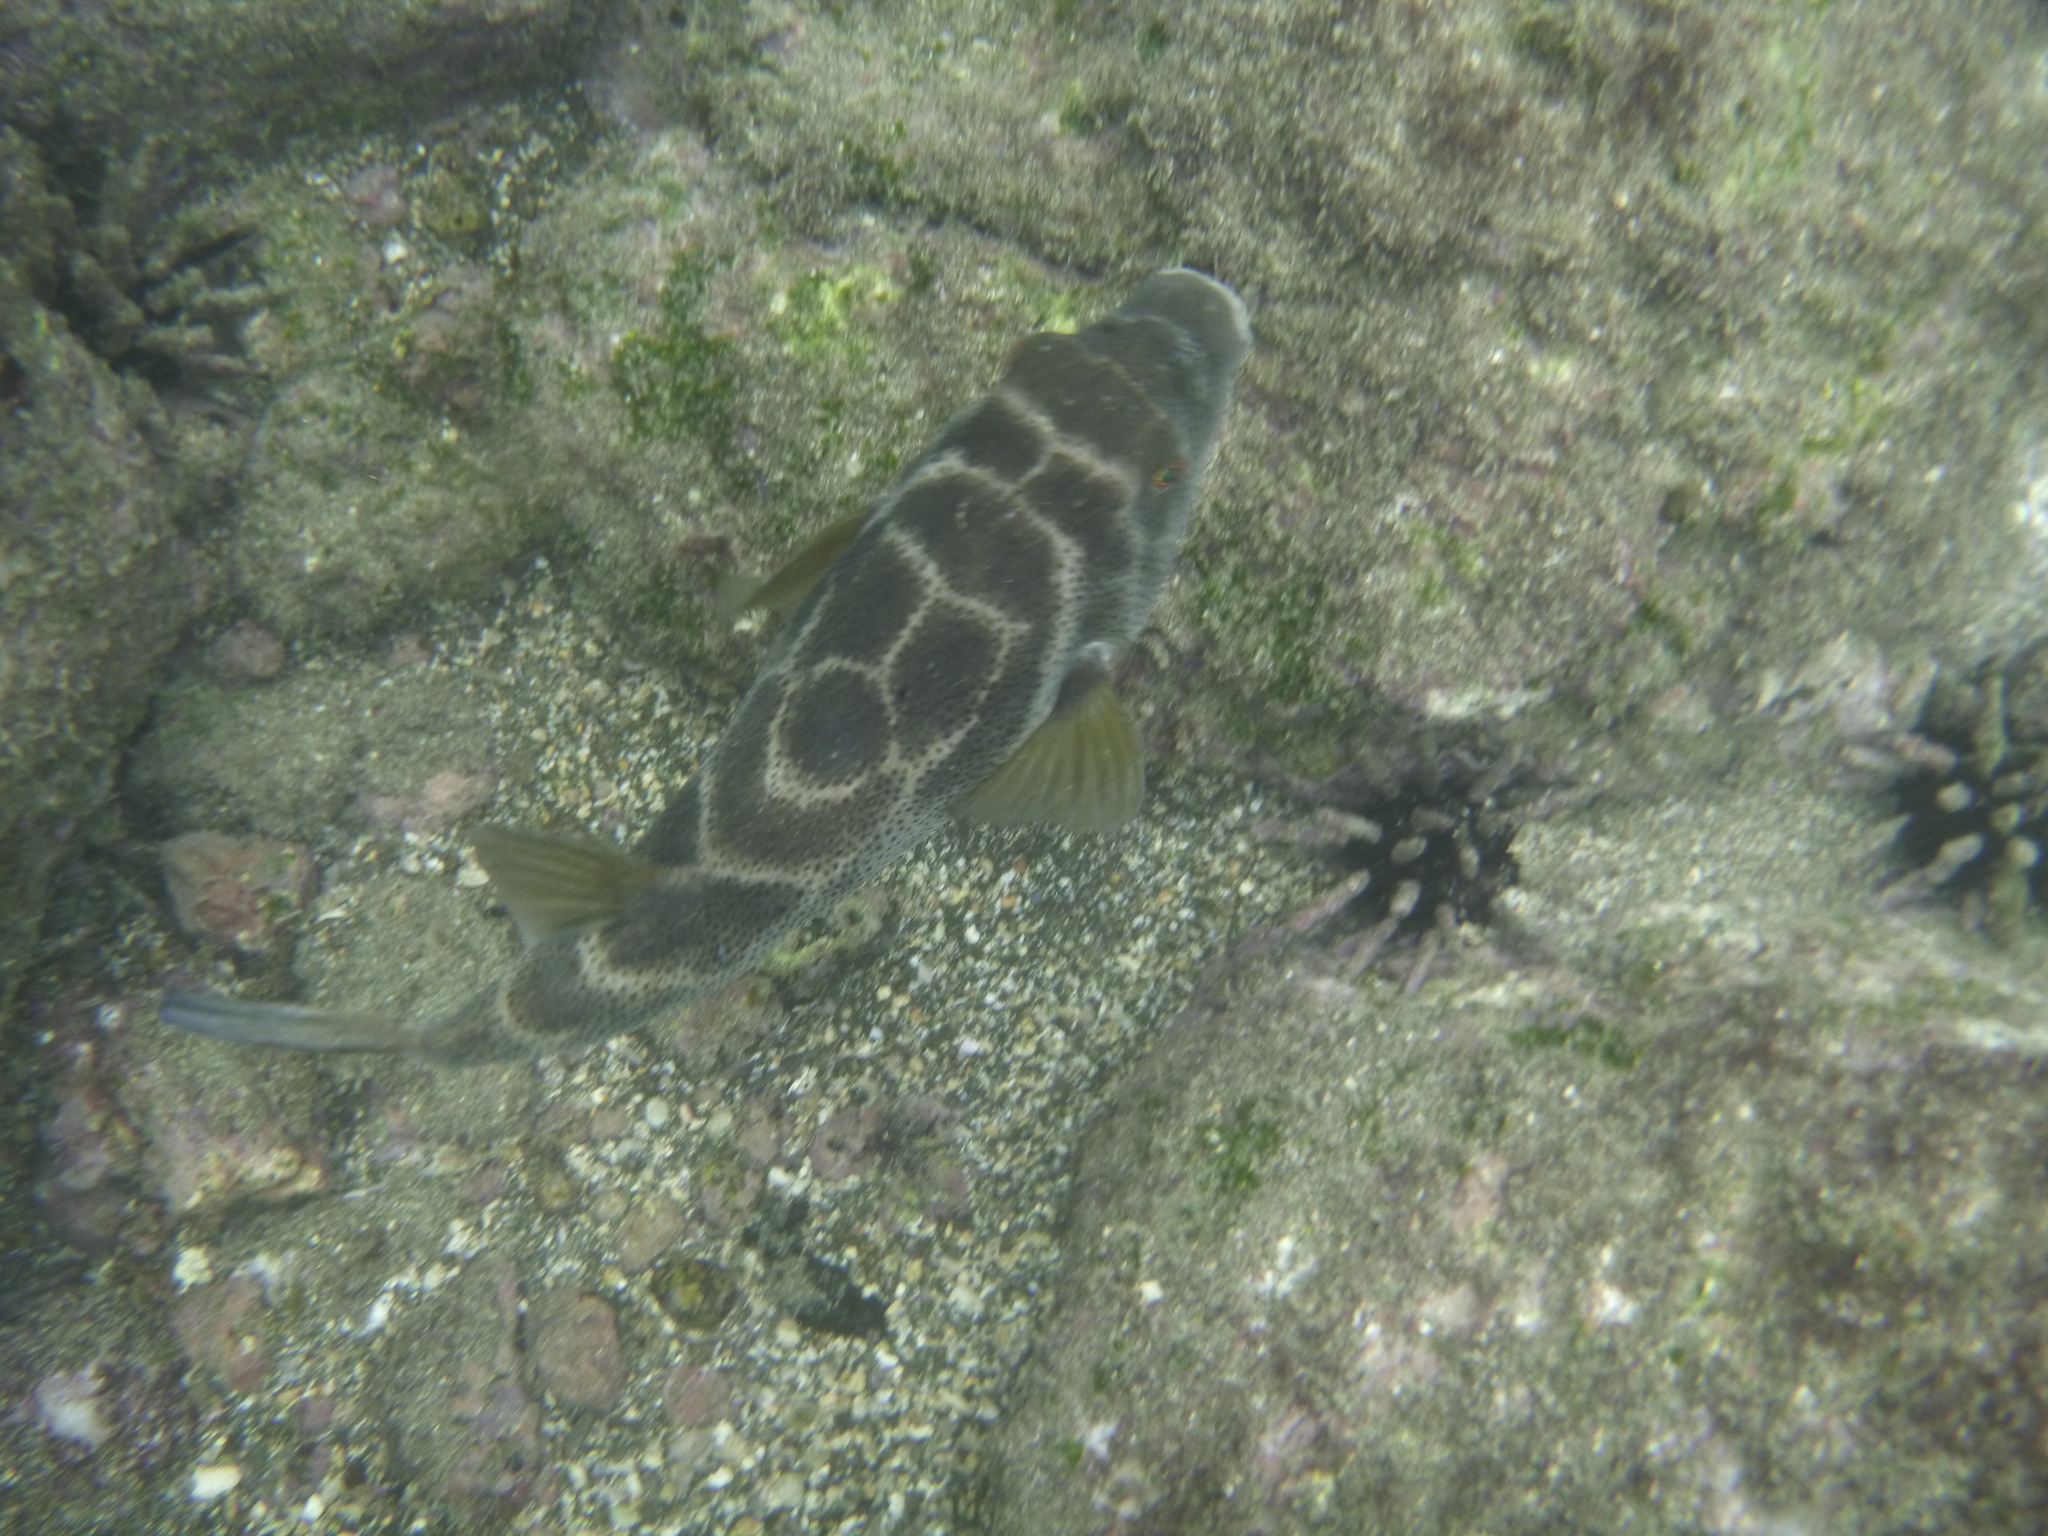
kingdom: Animalia
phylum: Chordata
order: Tetraodontiformes
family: Tetraodontidae
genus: Sphoeroides
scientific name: Sphoeroides annulatus
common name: Bullseye puffer
